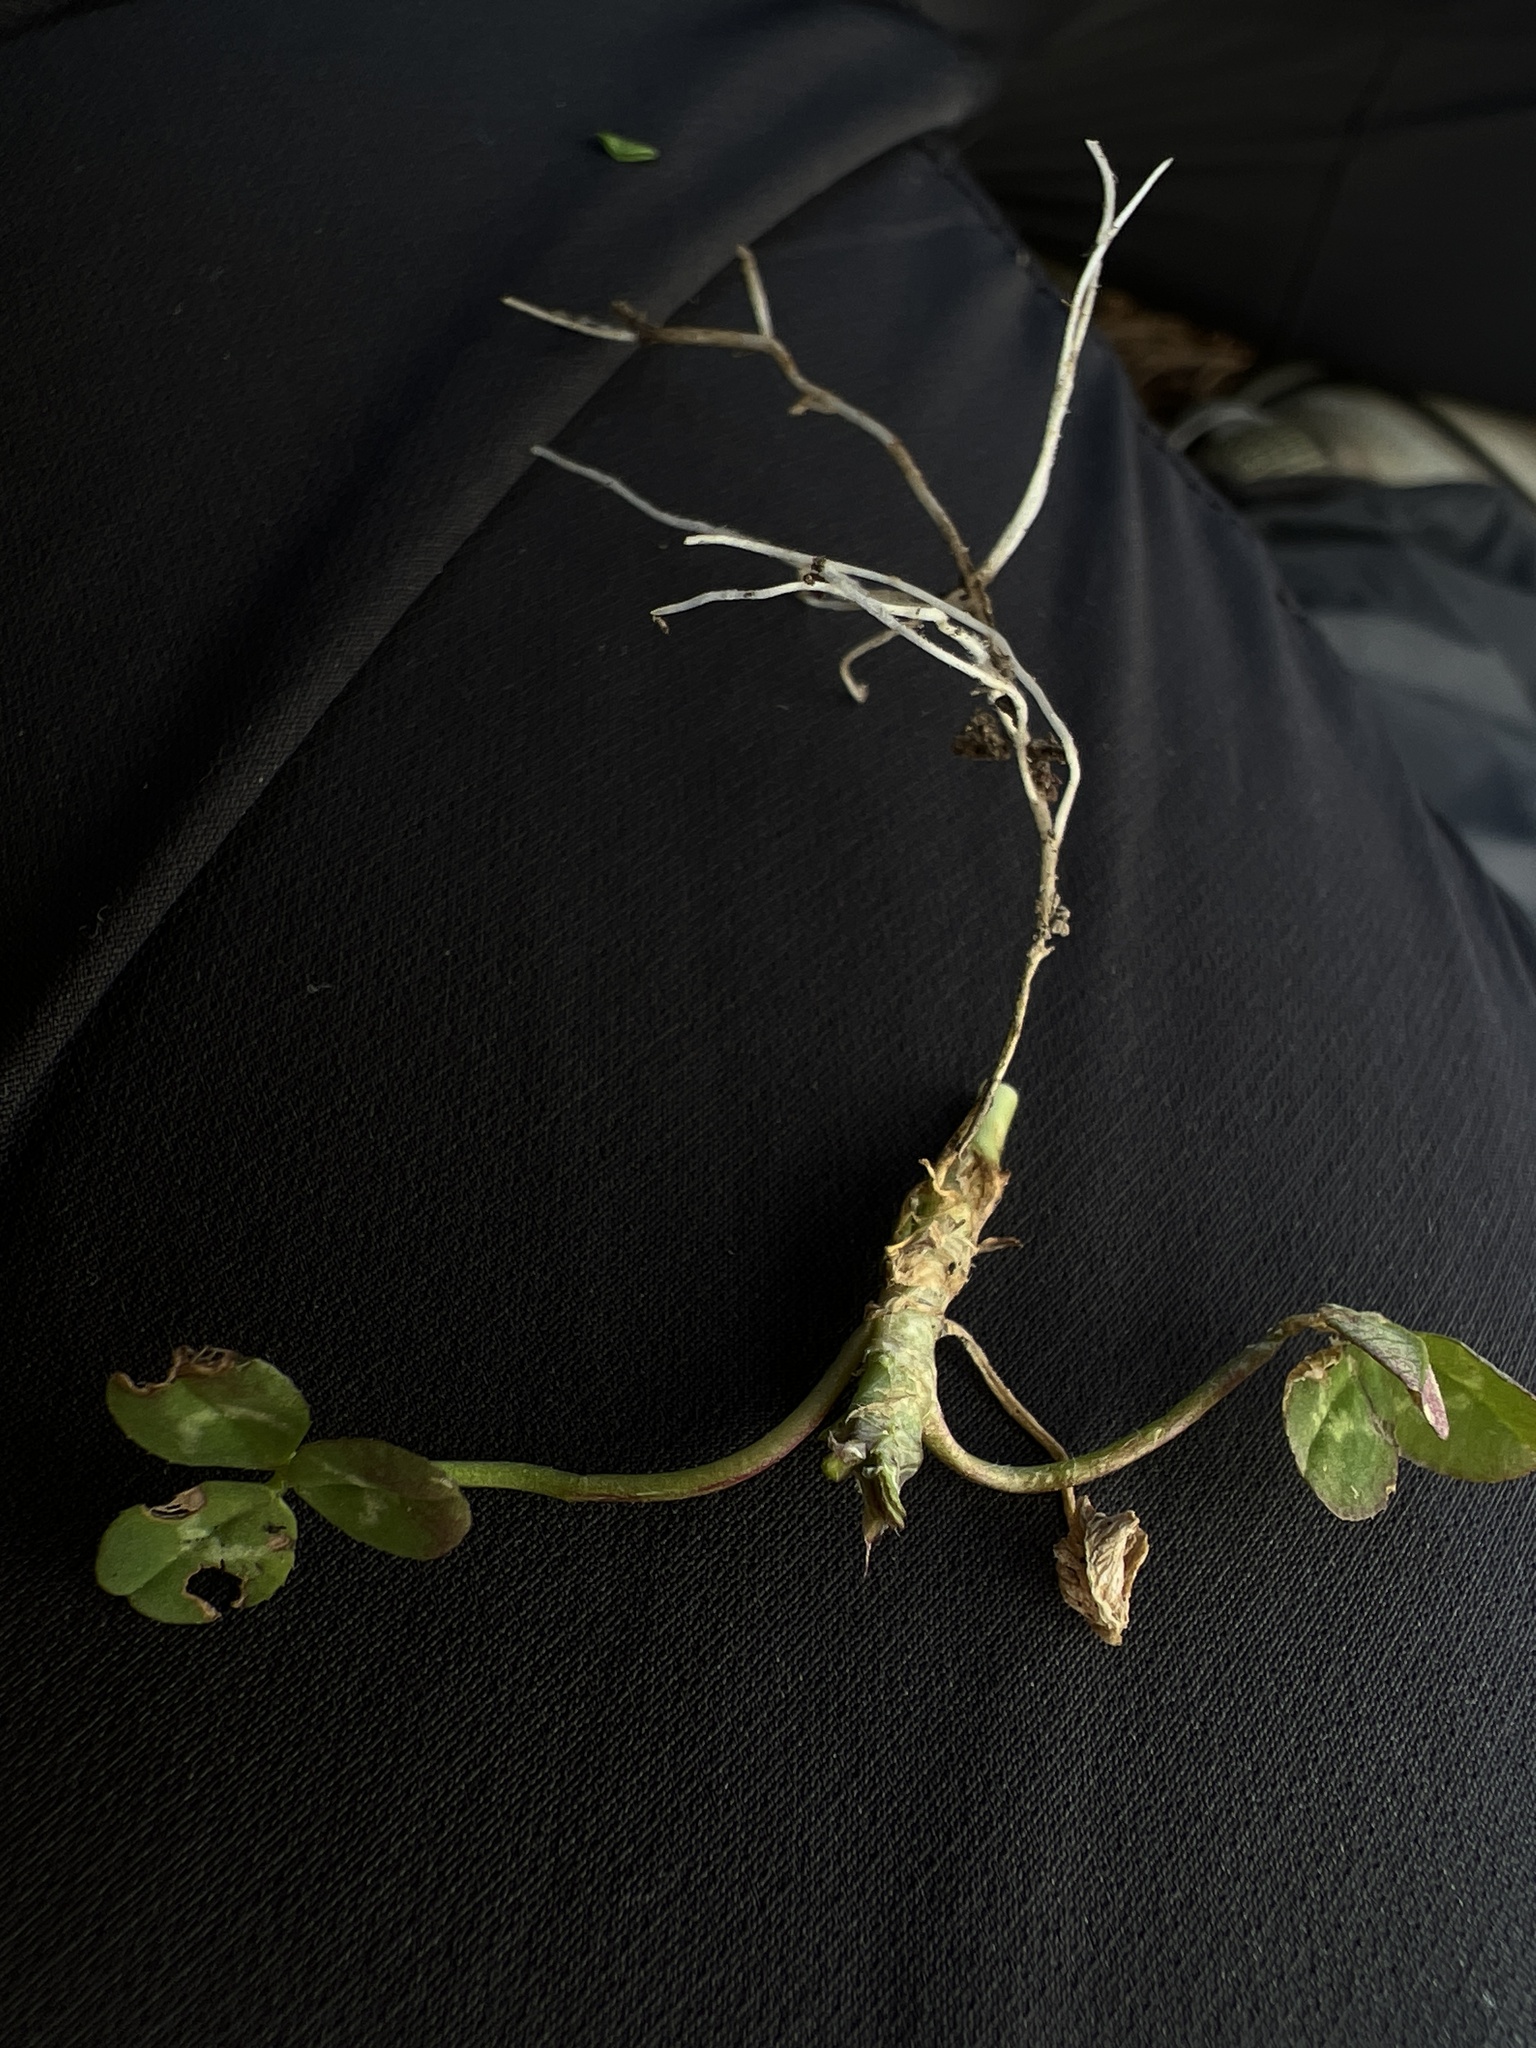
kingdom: Plantae
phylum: Tracheophyta
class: Magnoliopsida
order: Fabales
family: Fabaceae
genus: Trifolium
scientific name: Trifolium repens
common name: White clover
